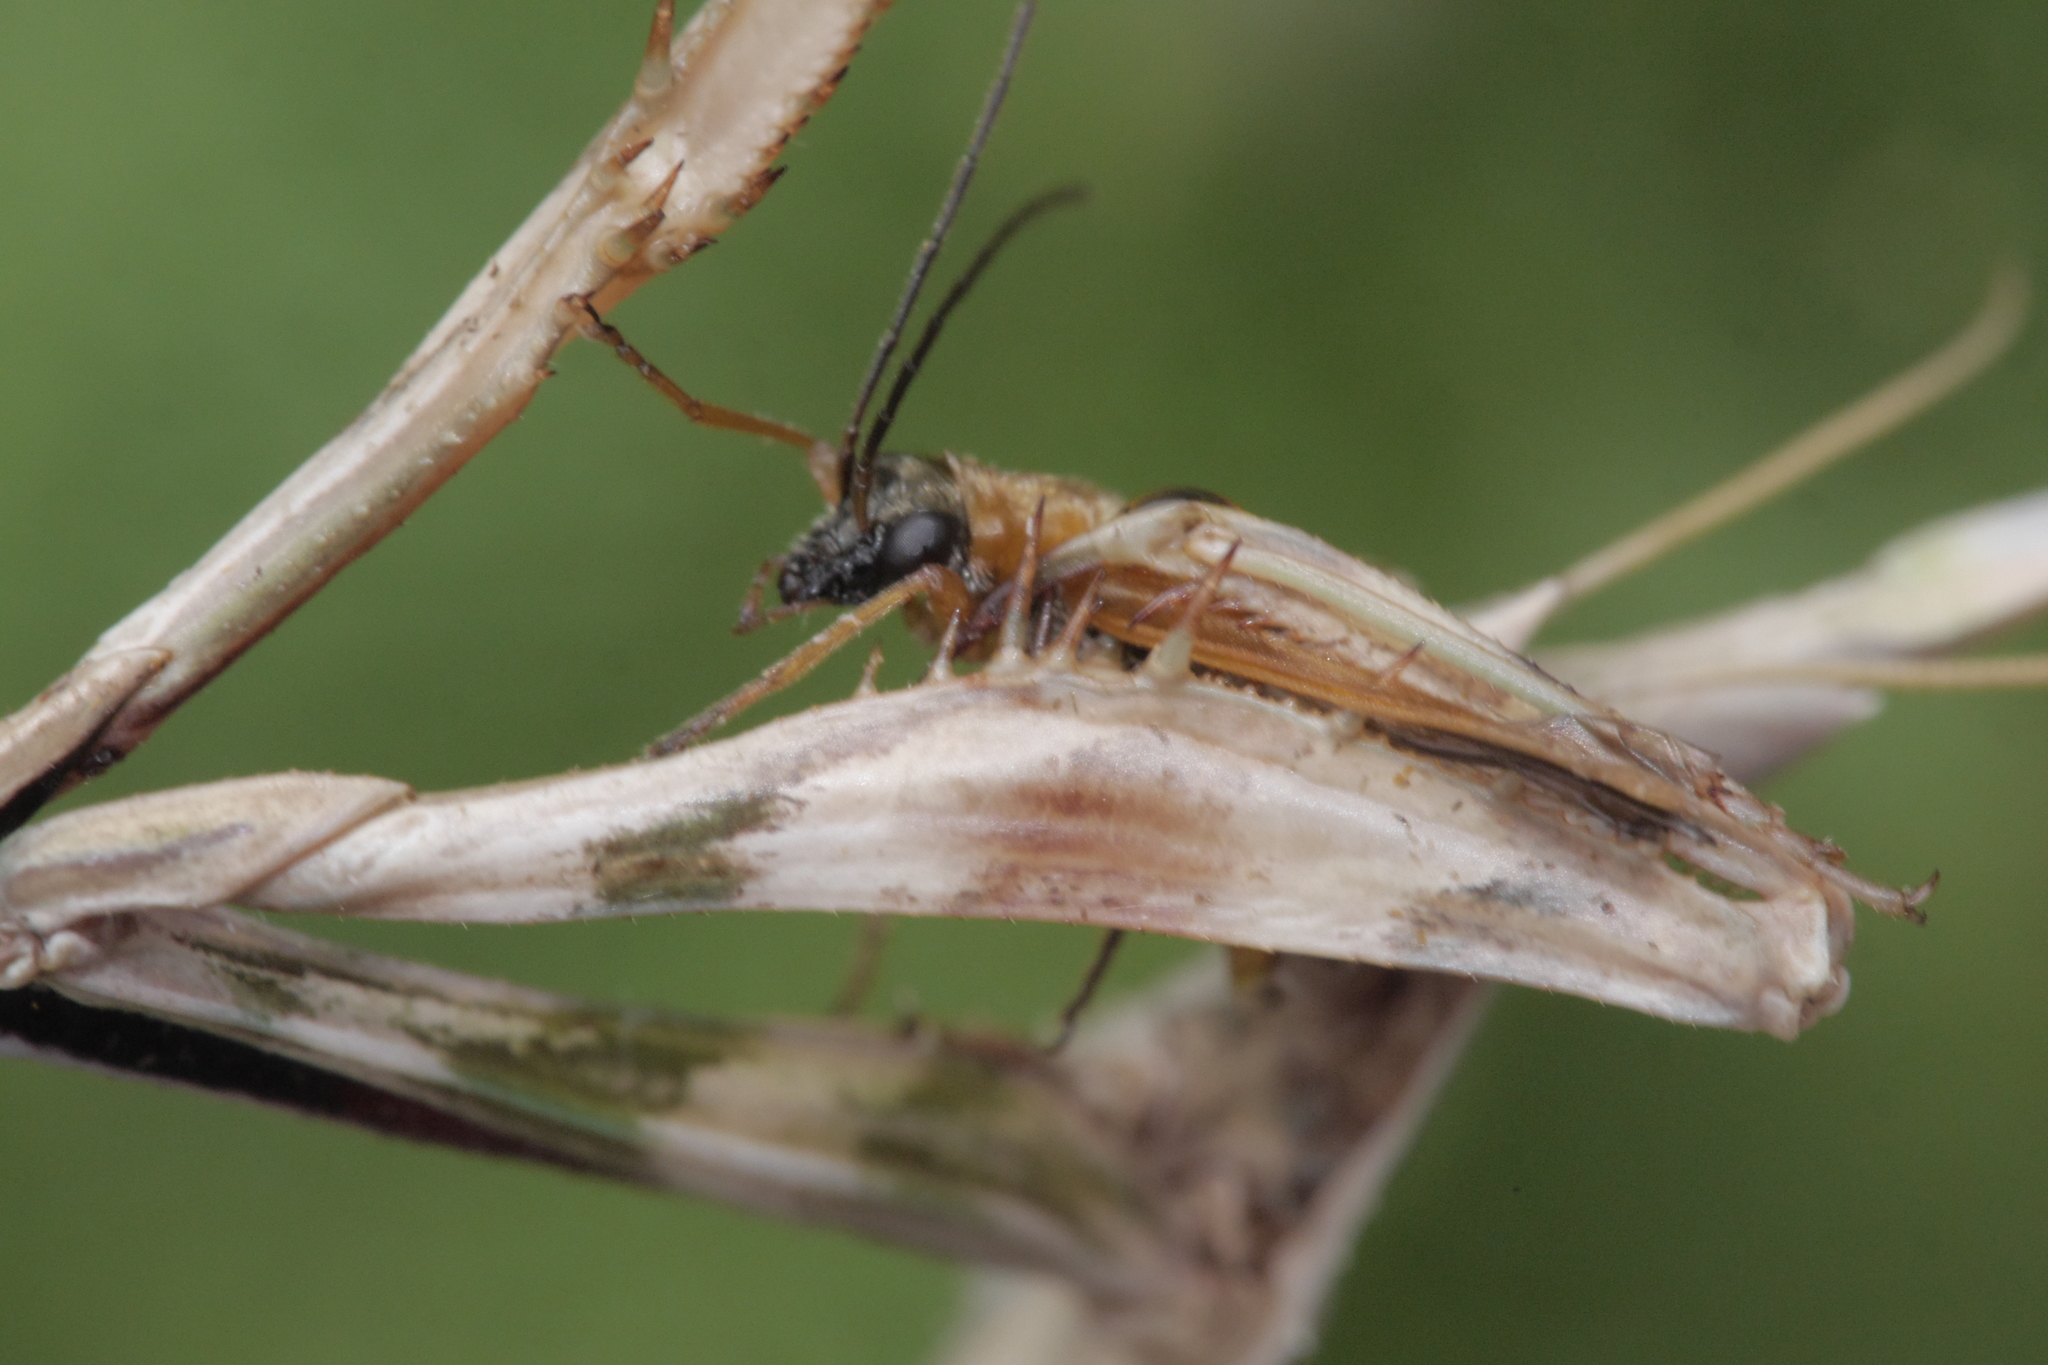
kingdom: Animalia
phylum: Arthropoda
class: Insecta
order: Coleoptera
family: Oedemeridae
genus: Oedemera
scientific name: Oedemera podagrariae
